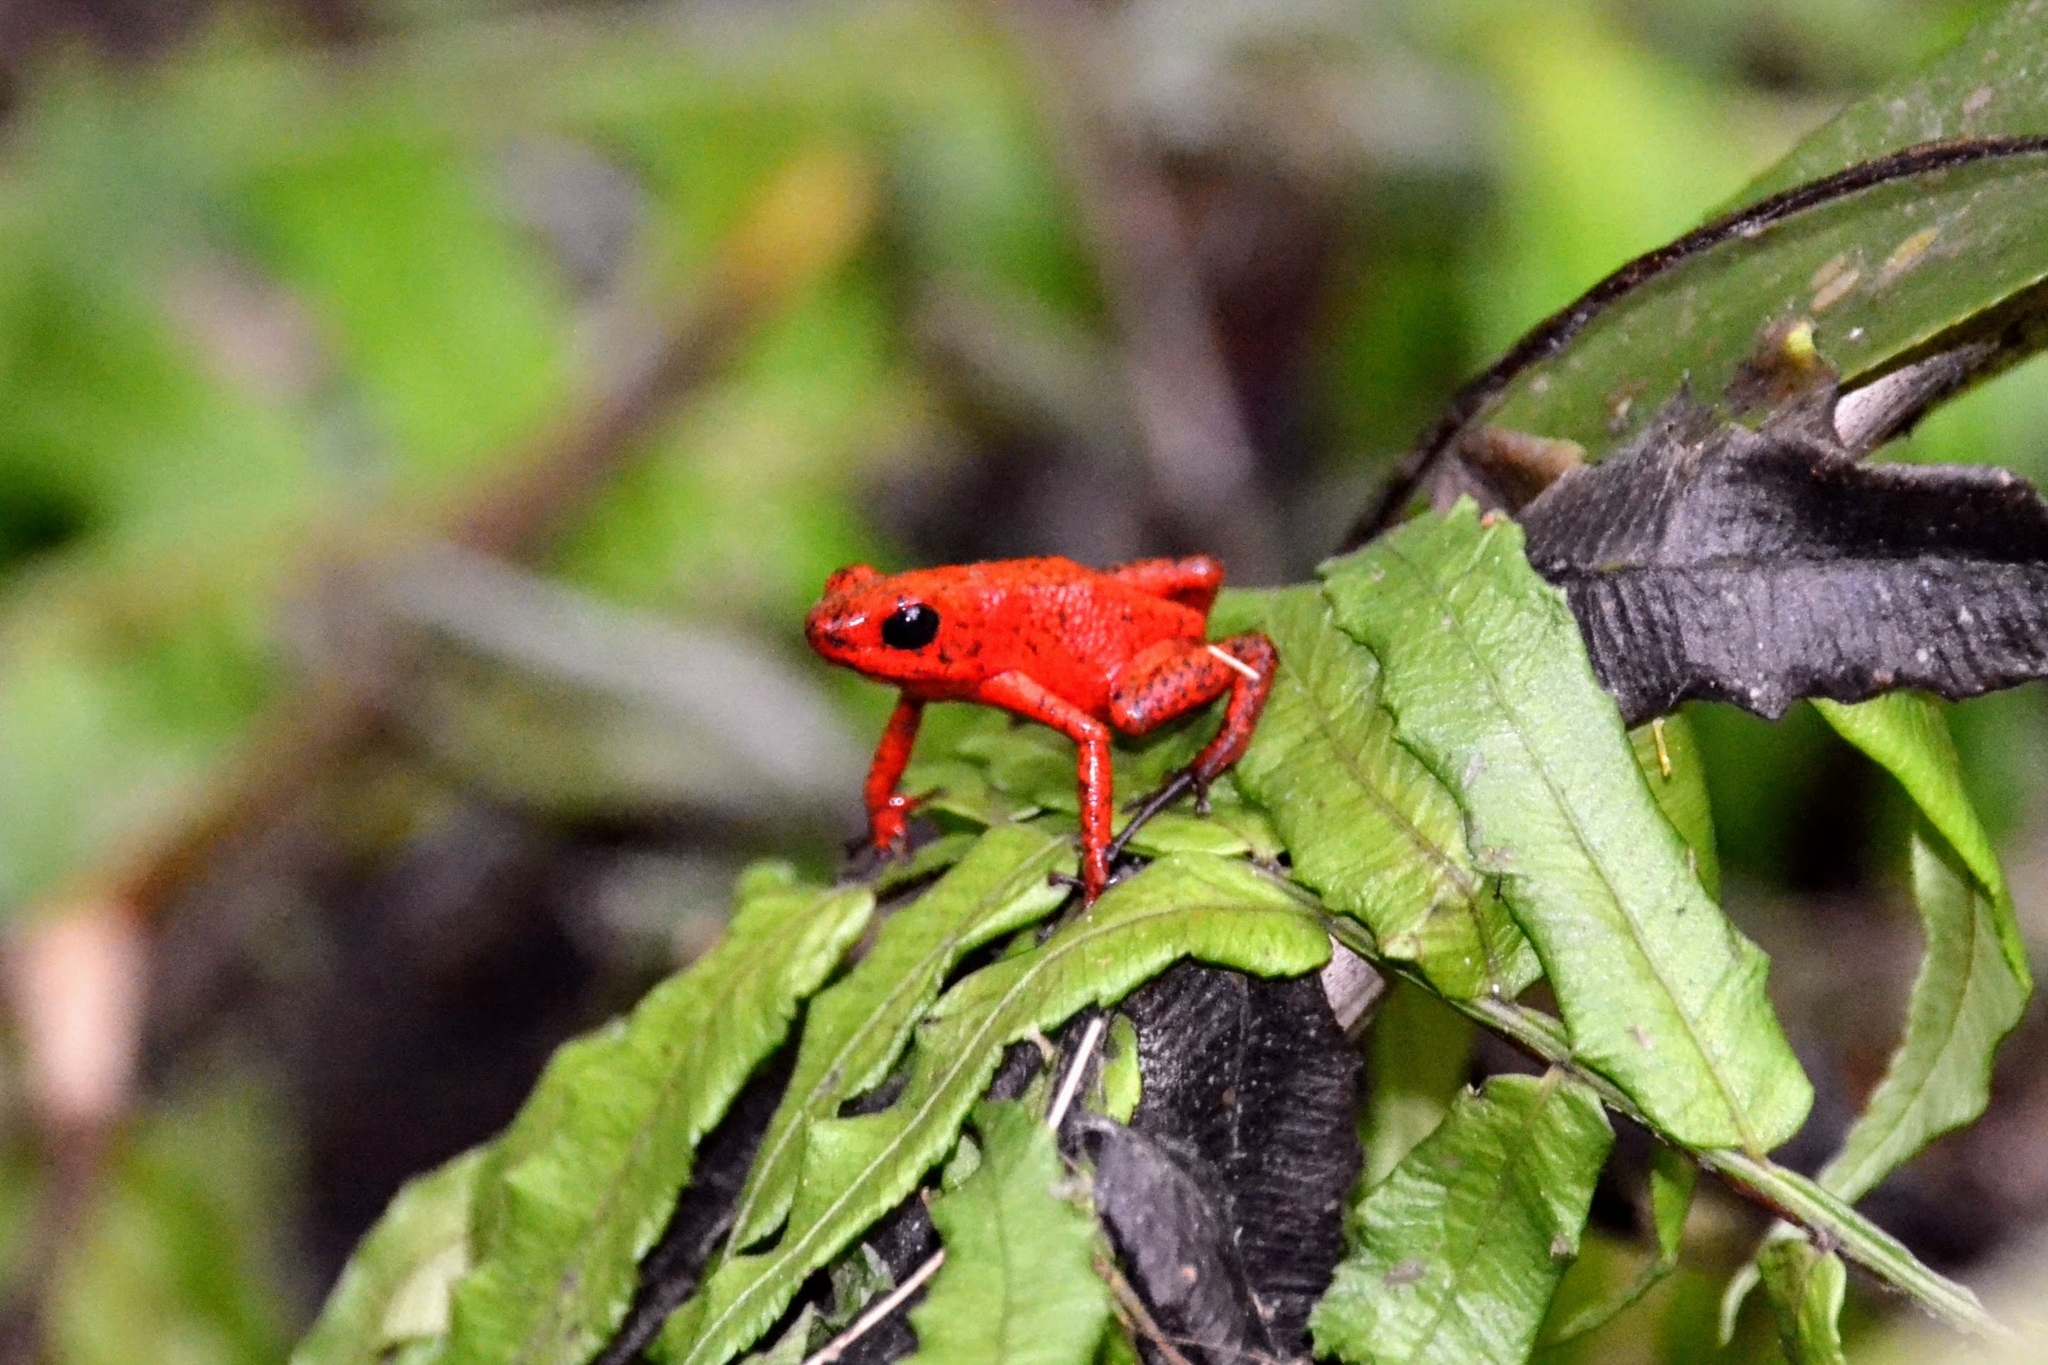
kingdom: Animalia
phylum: Chordata
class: Amphibia
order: Anura
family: Dendrobatidae
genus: Oophaga
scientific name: Oophaga pumilio
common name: Flaming poison frog
